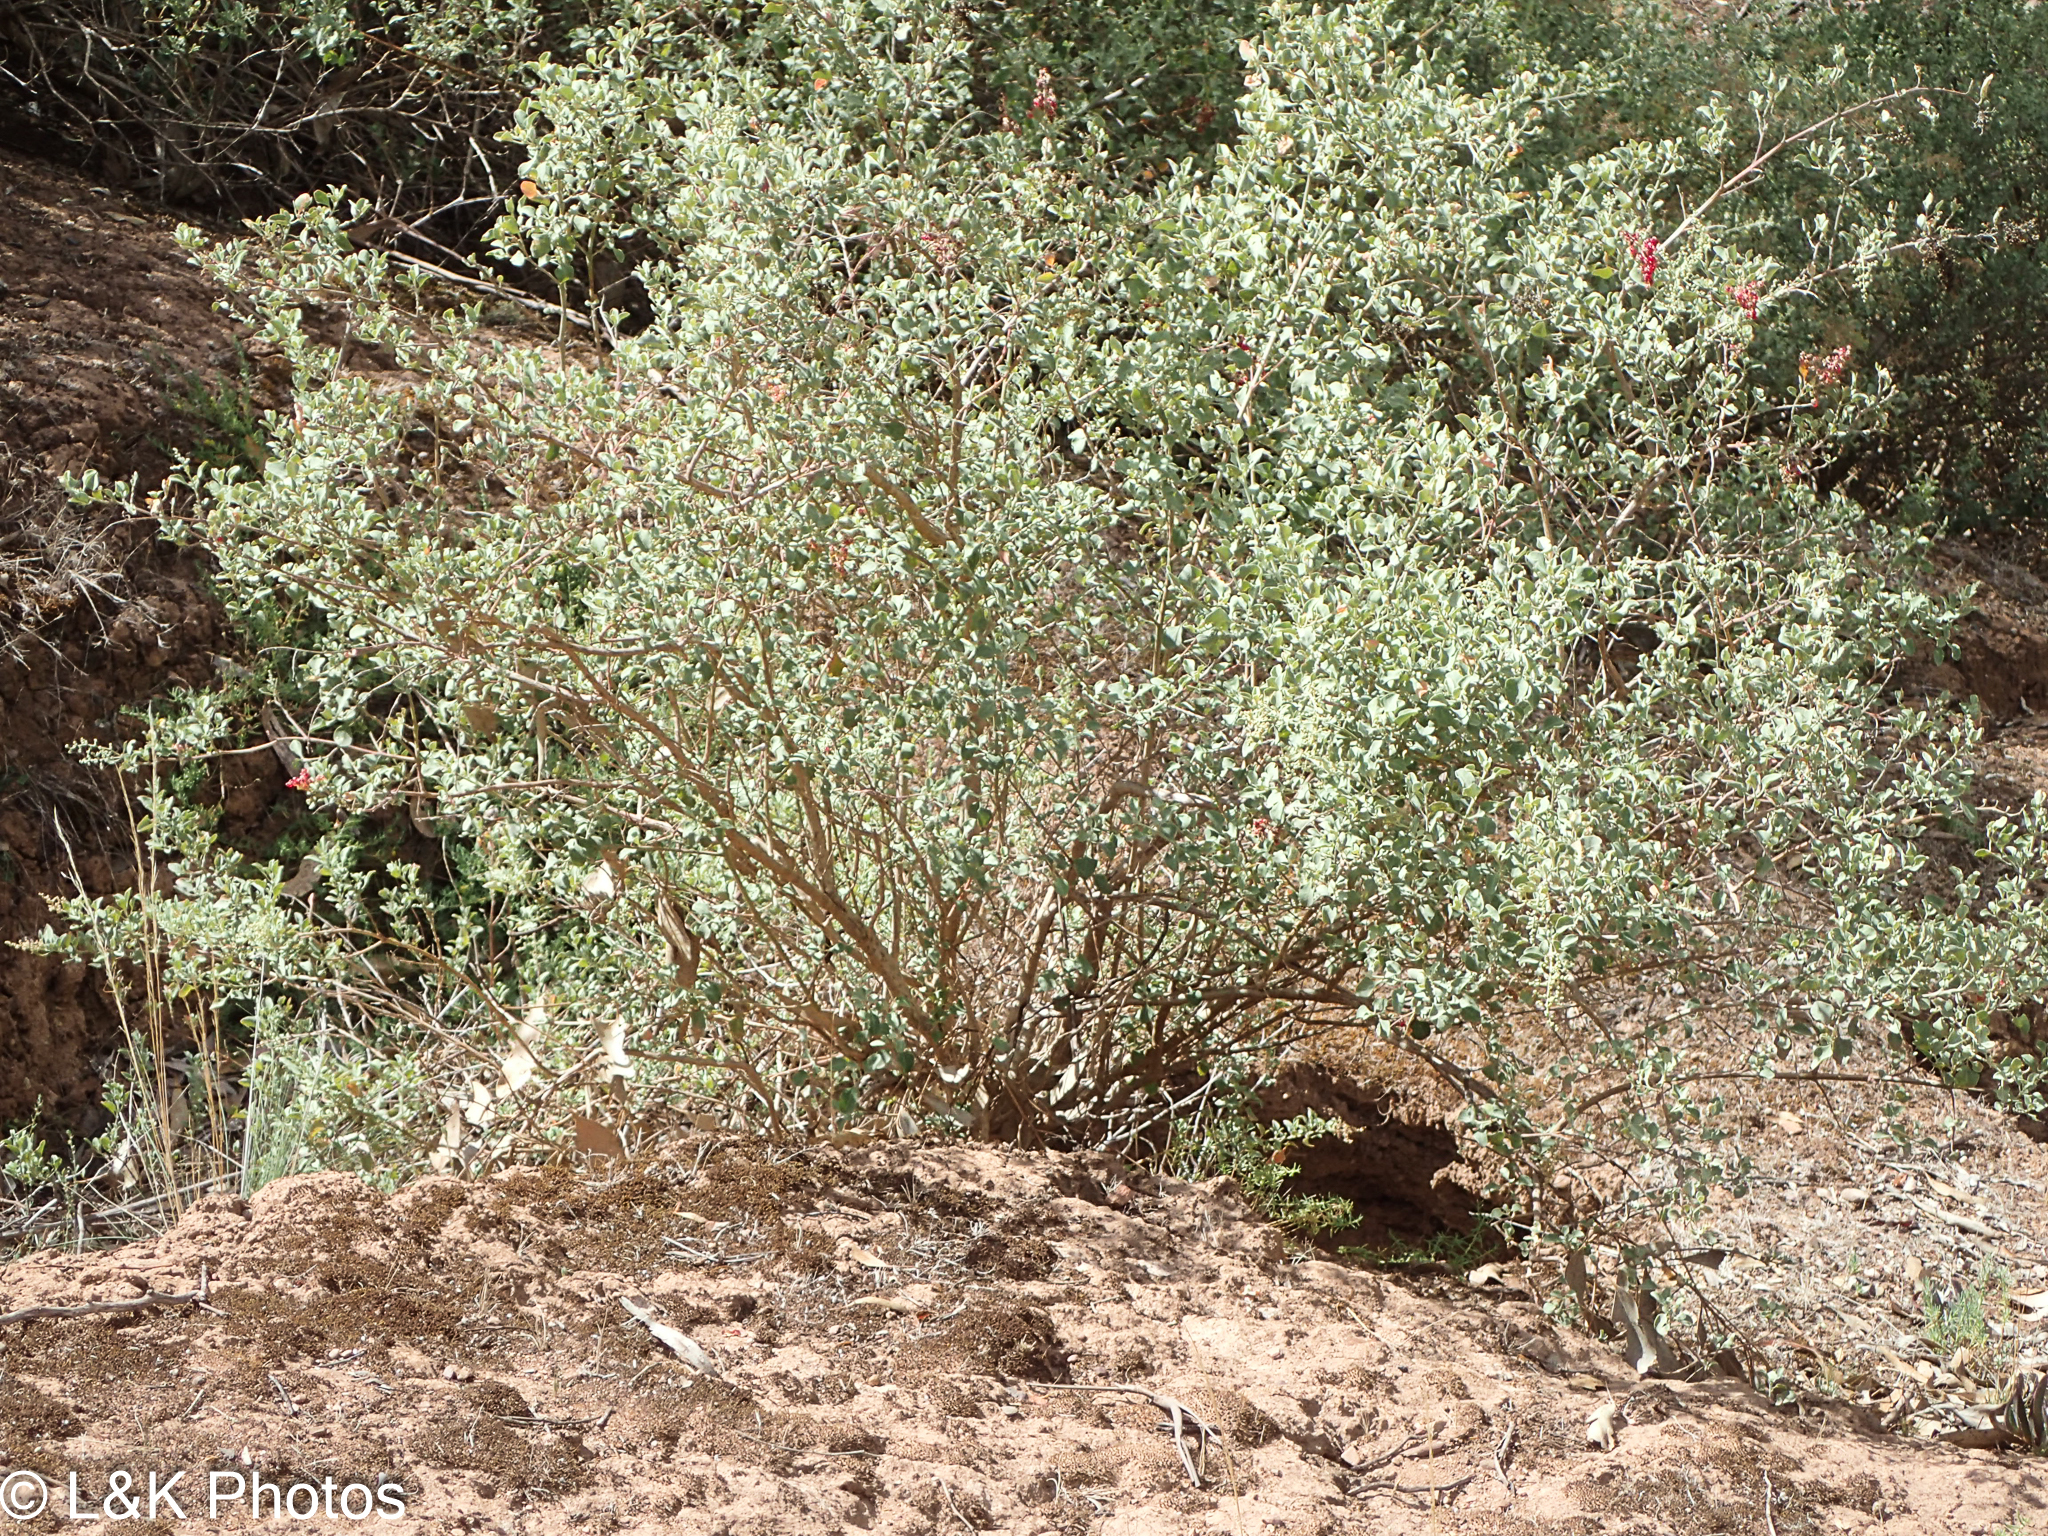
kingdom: Plantae
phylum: Tracheophyta
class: Magnoliopsida
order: Caryophyllales
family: Amaranthaceae
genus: Chenopodium
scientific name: Chenopodium parabolicum
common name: Old-man-saltbush
